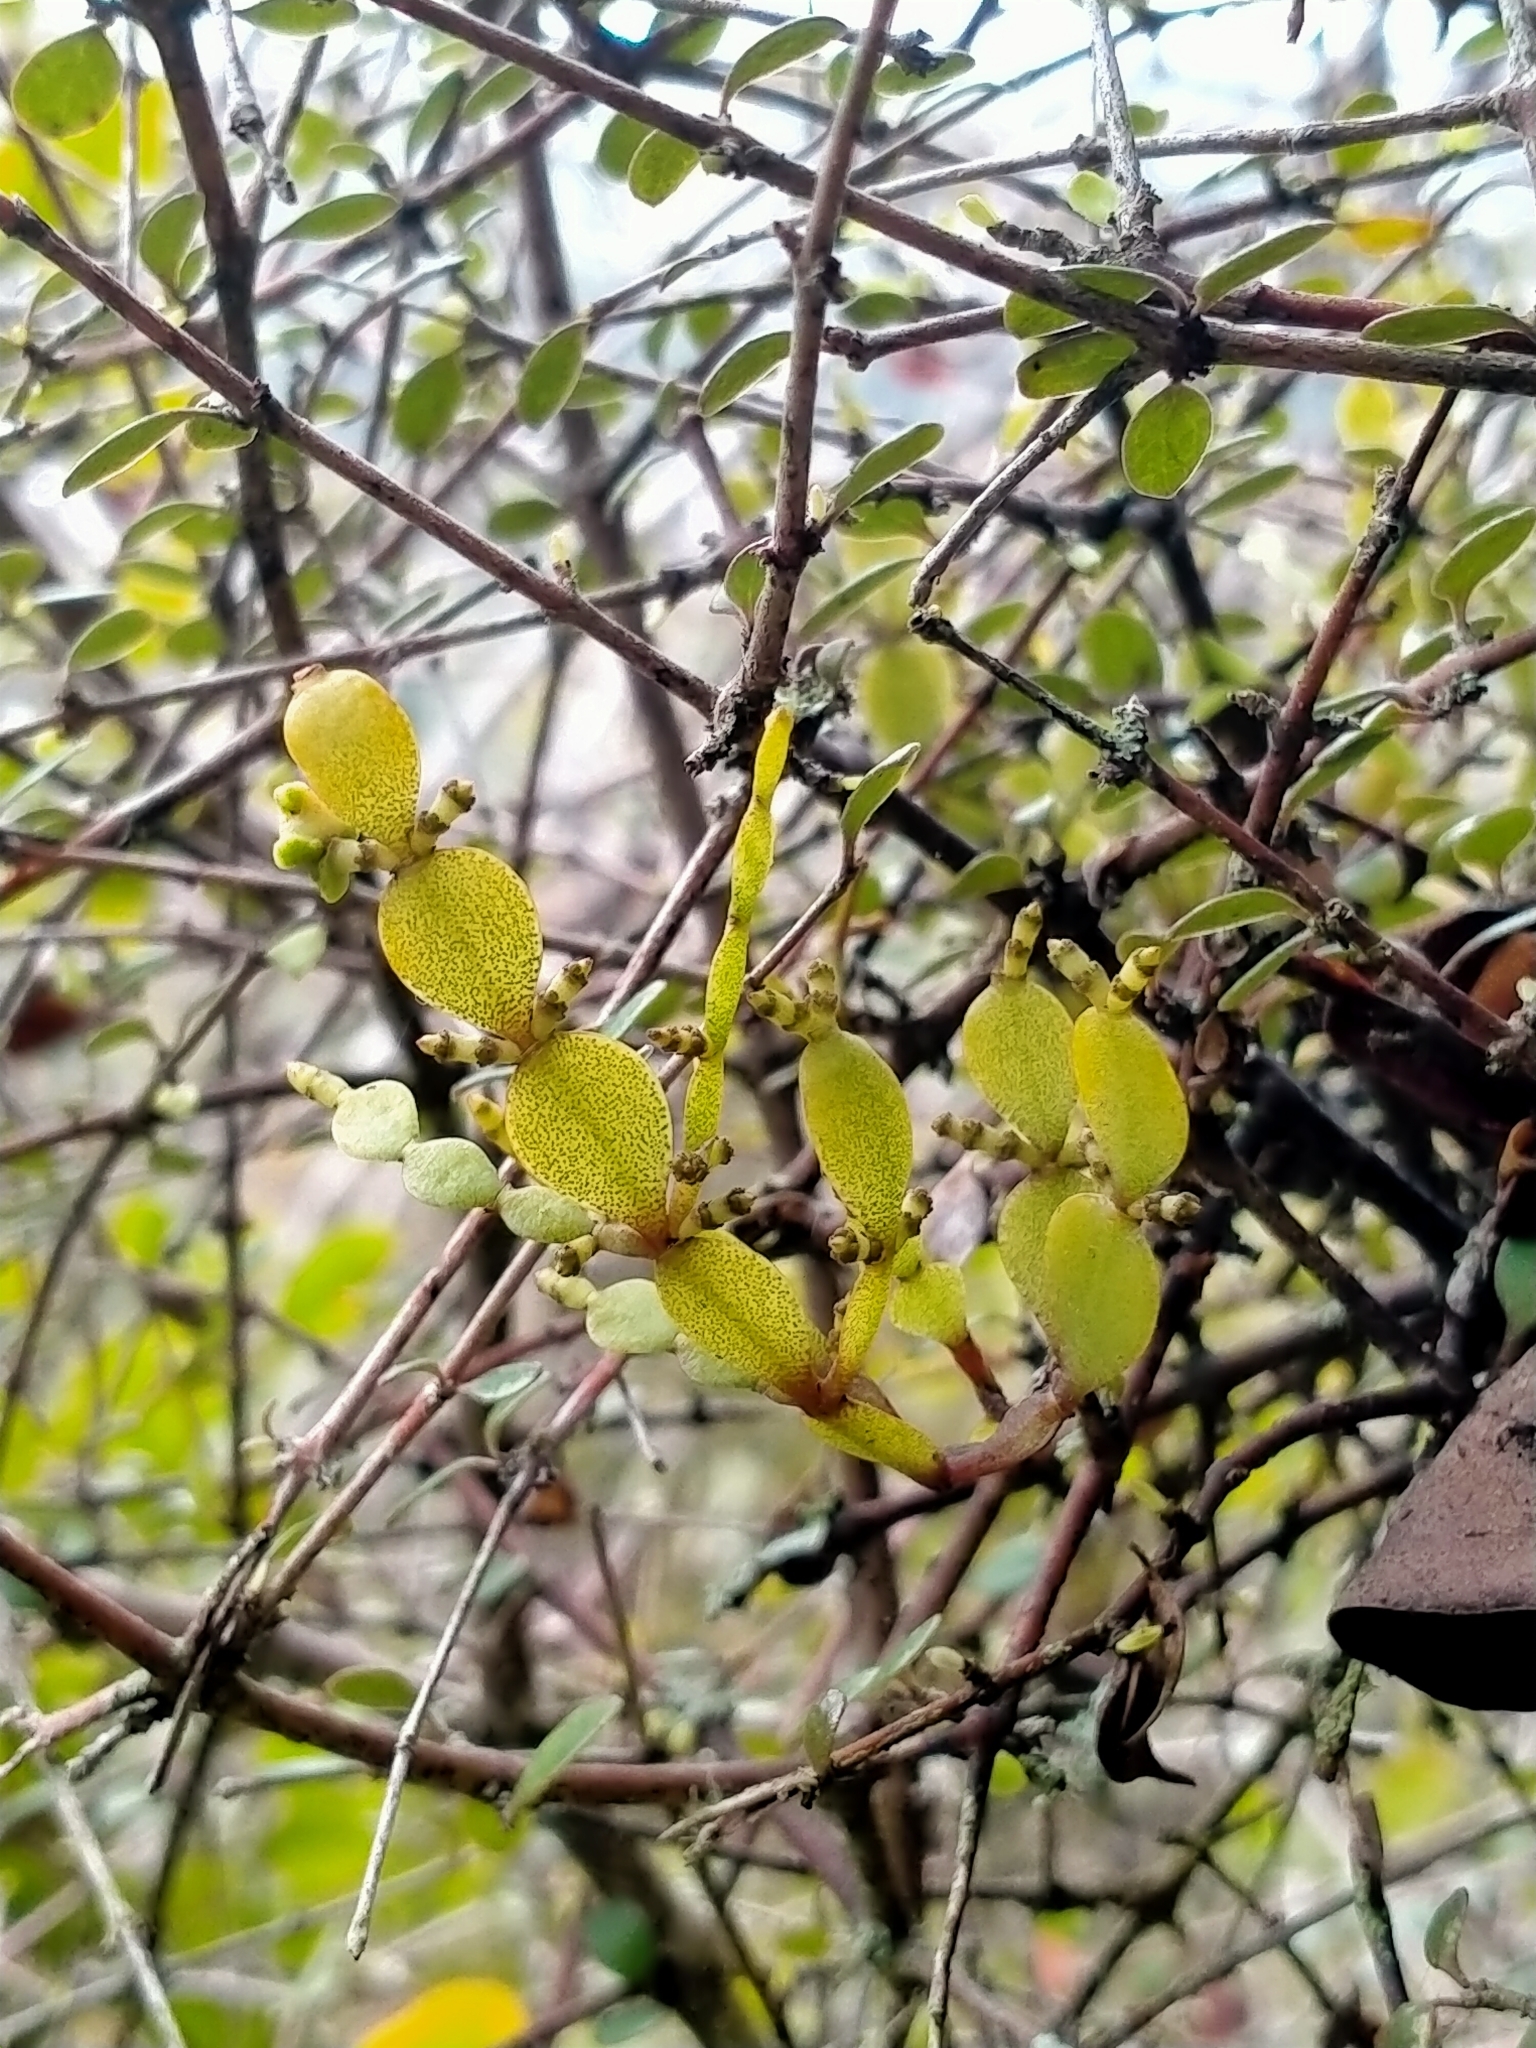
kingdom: Plantae
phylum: Tracheophyta
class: Magnoliopsida
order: Santalales
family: Viscaceae
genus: Korthalsella
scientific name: Korthalsella lindsayi
